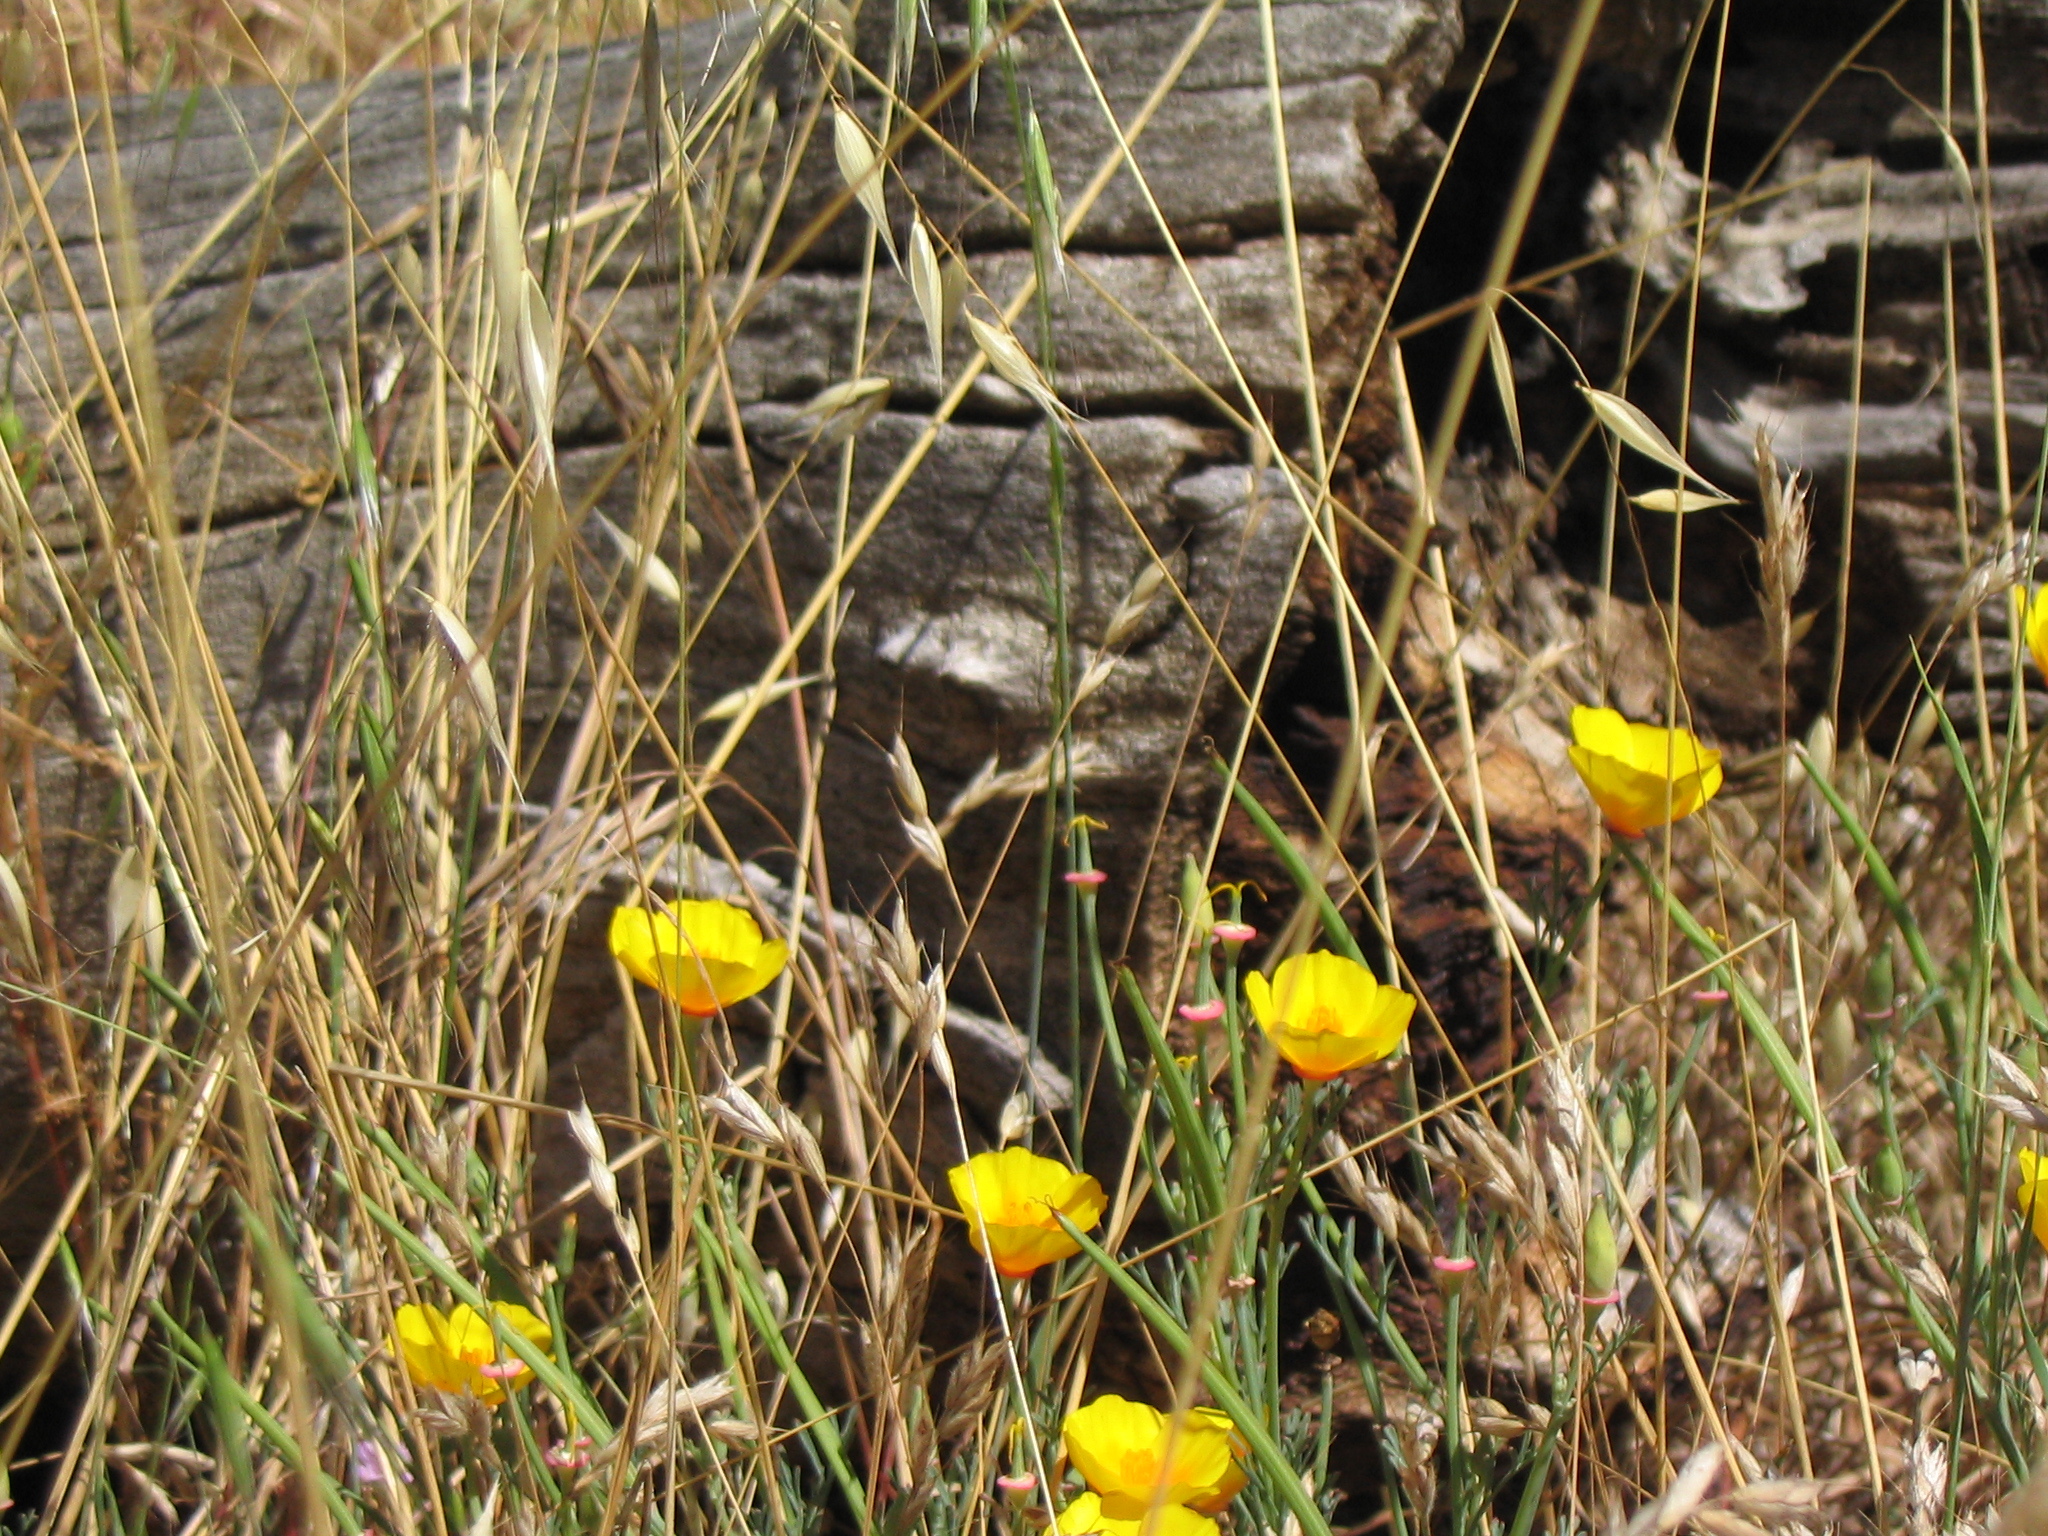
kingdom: Plantae
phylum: Tracheophyta
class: Magnoliopsida
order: Ranunculales
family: Papaveraceae
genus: Eschscholzia
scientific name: Eschscholzia californica
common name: California poppy
